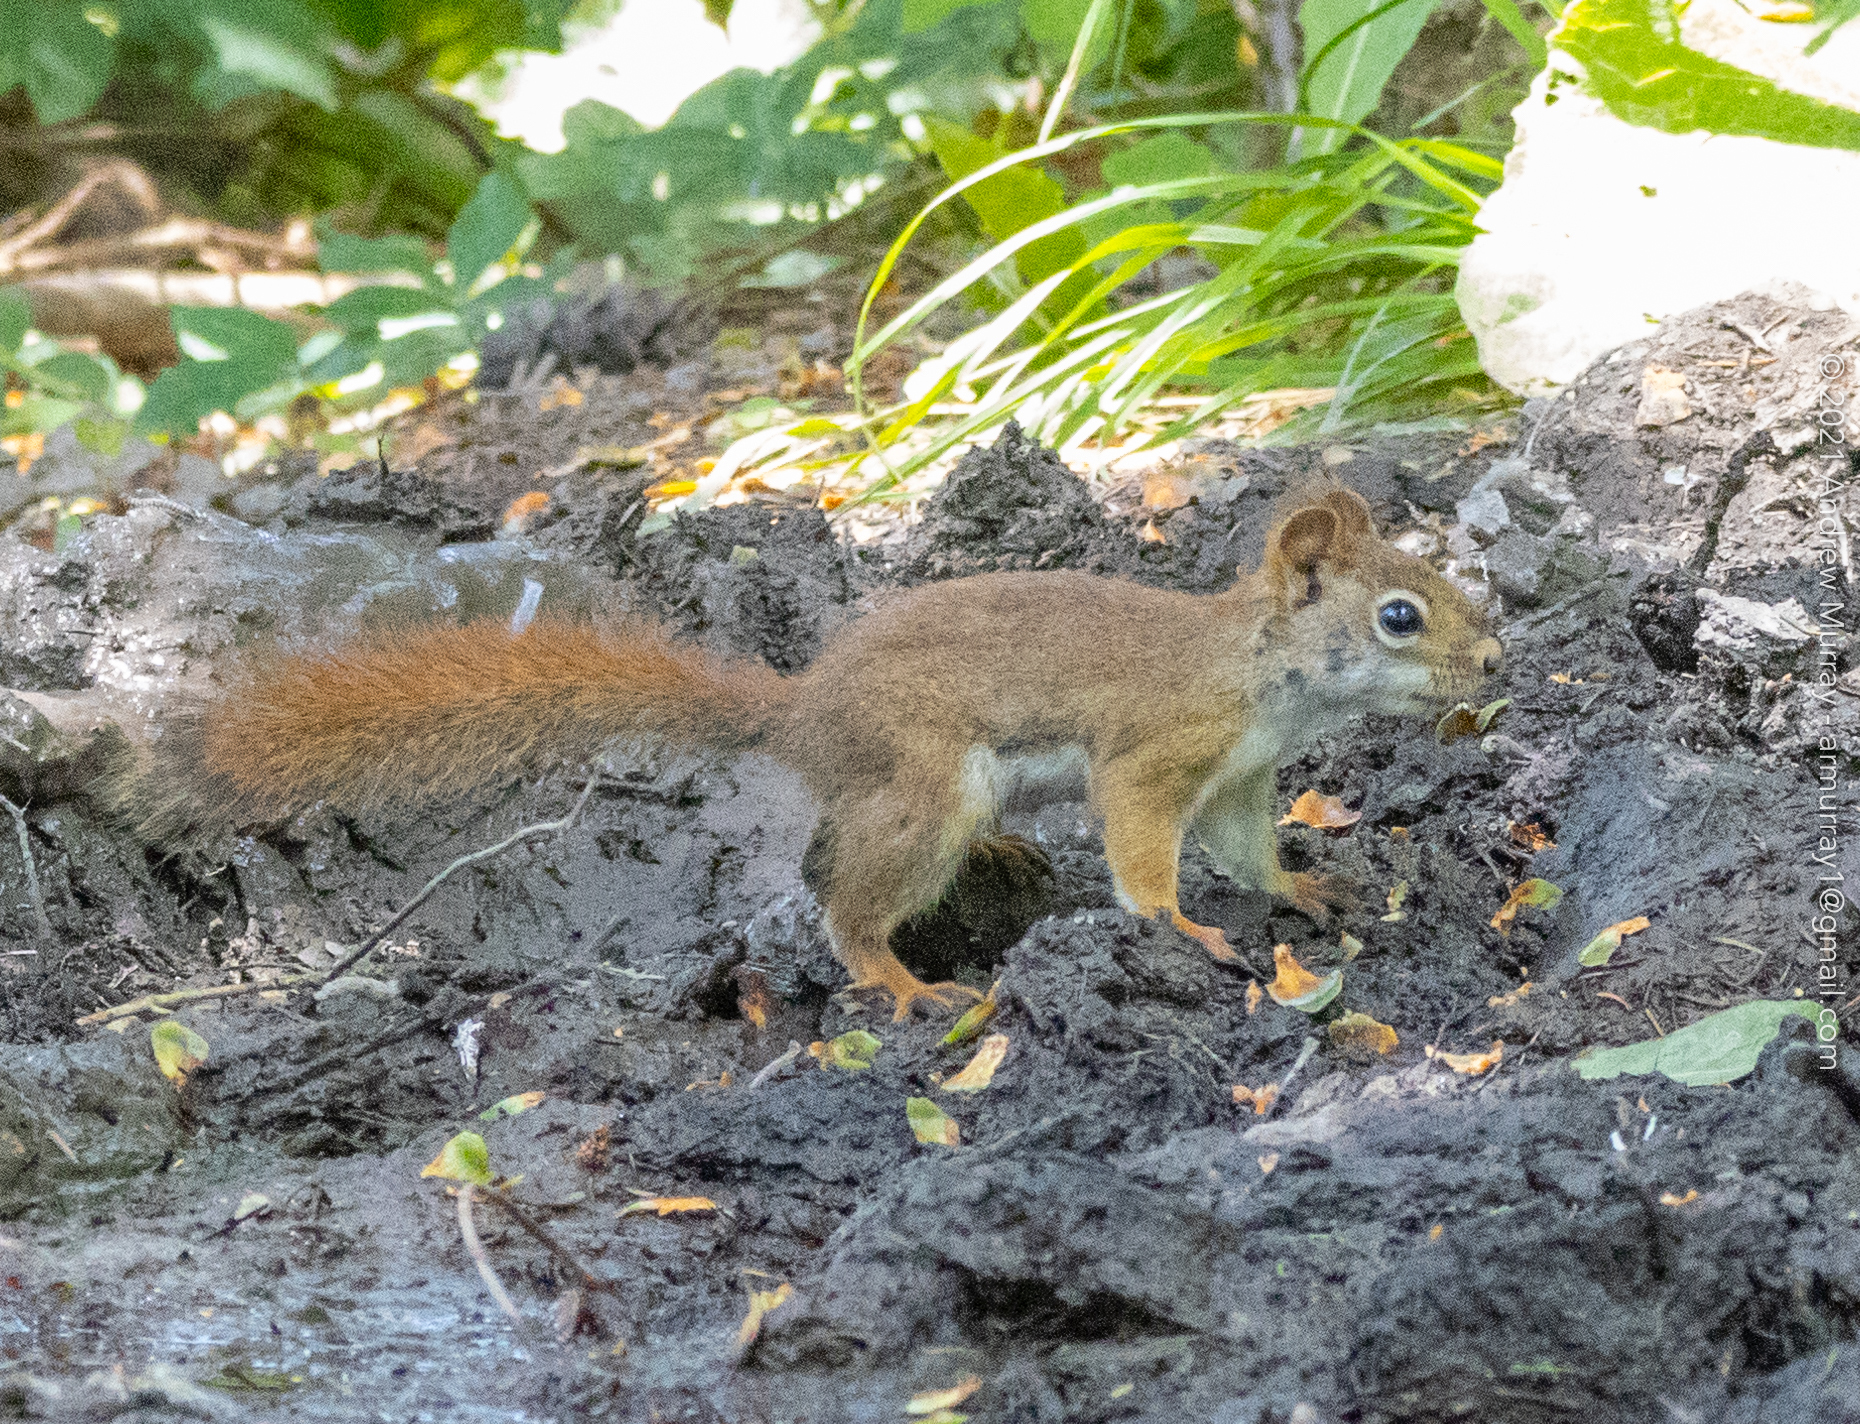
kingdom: Animalia
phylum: Chordata
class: Mammalia
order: Rodentia
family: Sciuridae
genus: Tamiasciurus
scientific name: Tamiasciurus hudsonicus
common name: Red squirrel
